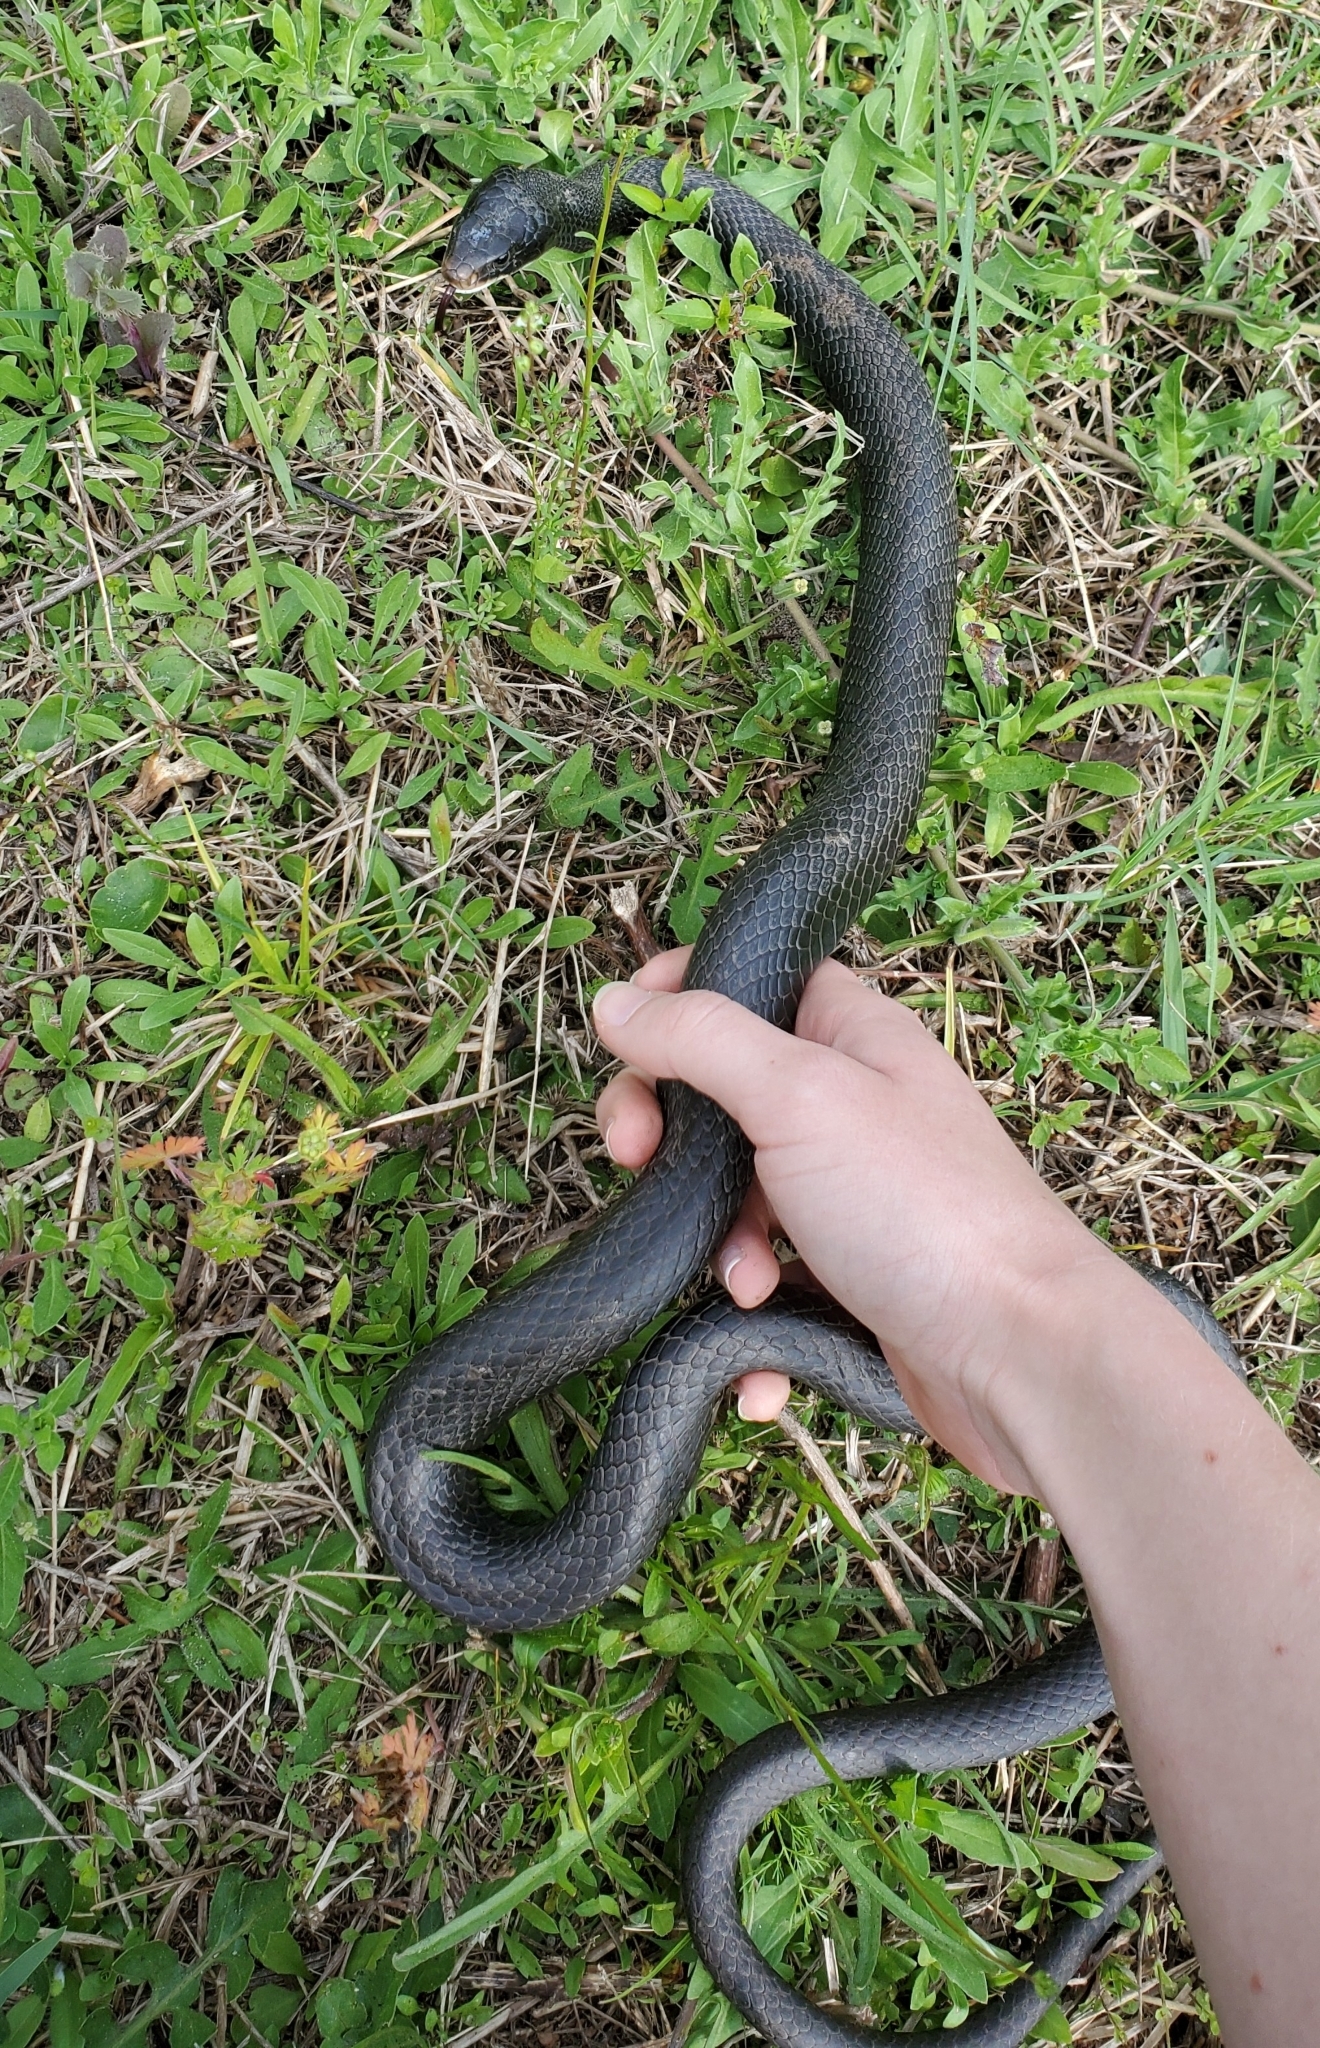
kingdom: Animalia
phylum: Chordata
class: Squamata
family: Colubridae
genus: Coluber
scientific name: Coluber constrictor
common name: Eastern racer
